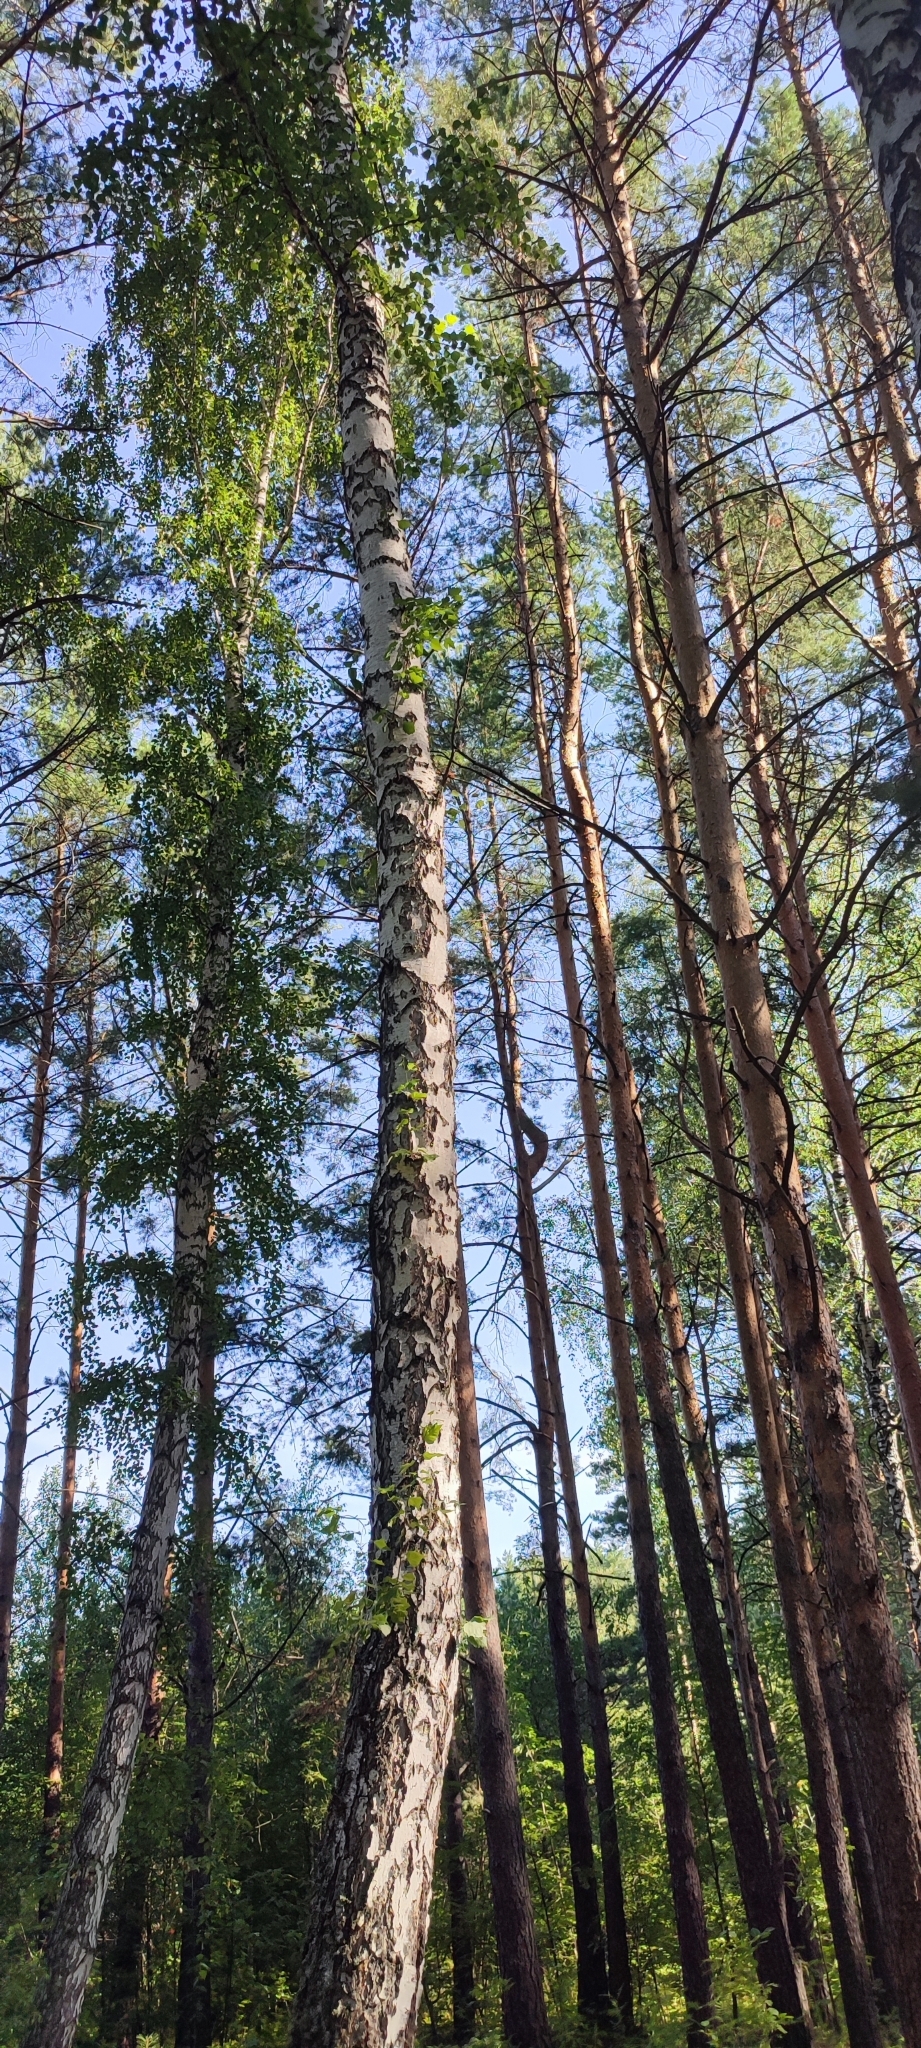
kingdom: Plantae
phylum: Tracheophyta
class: Magnoliopsida
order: Fagales
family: Betulaceae
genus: Betula
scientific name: Betula pendula
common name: Silver birch
